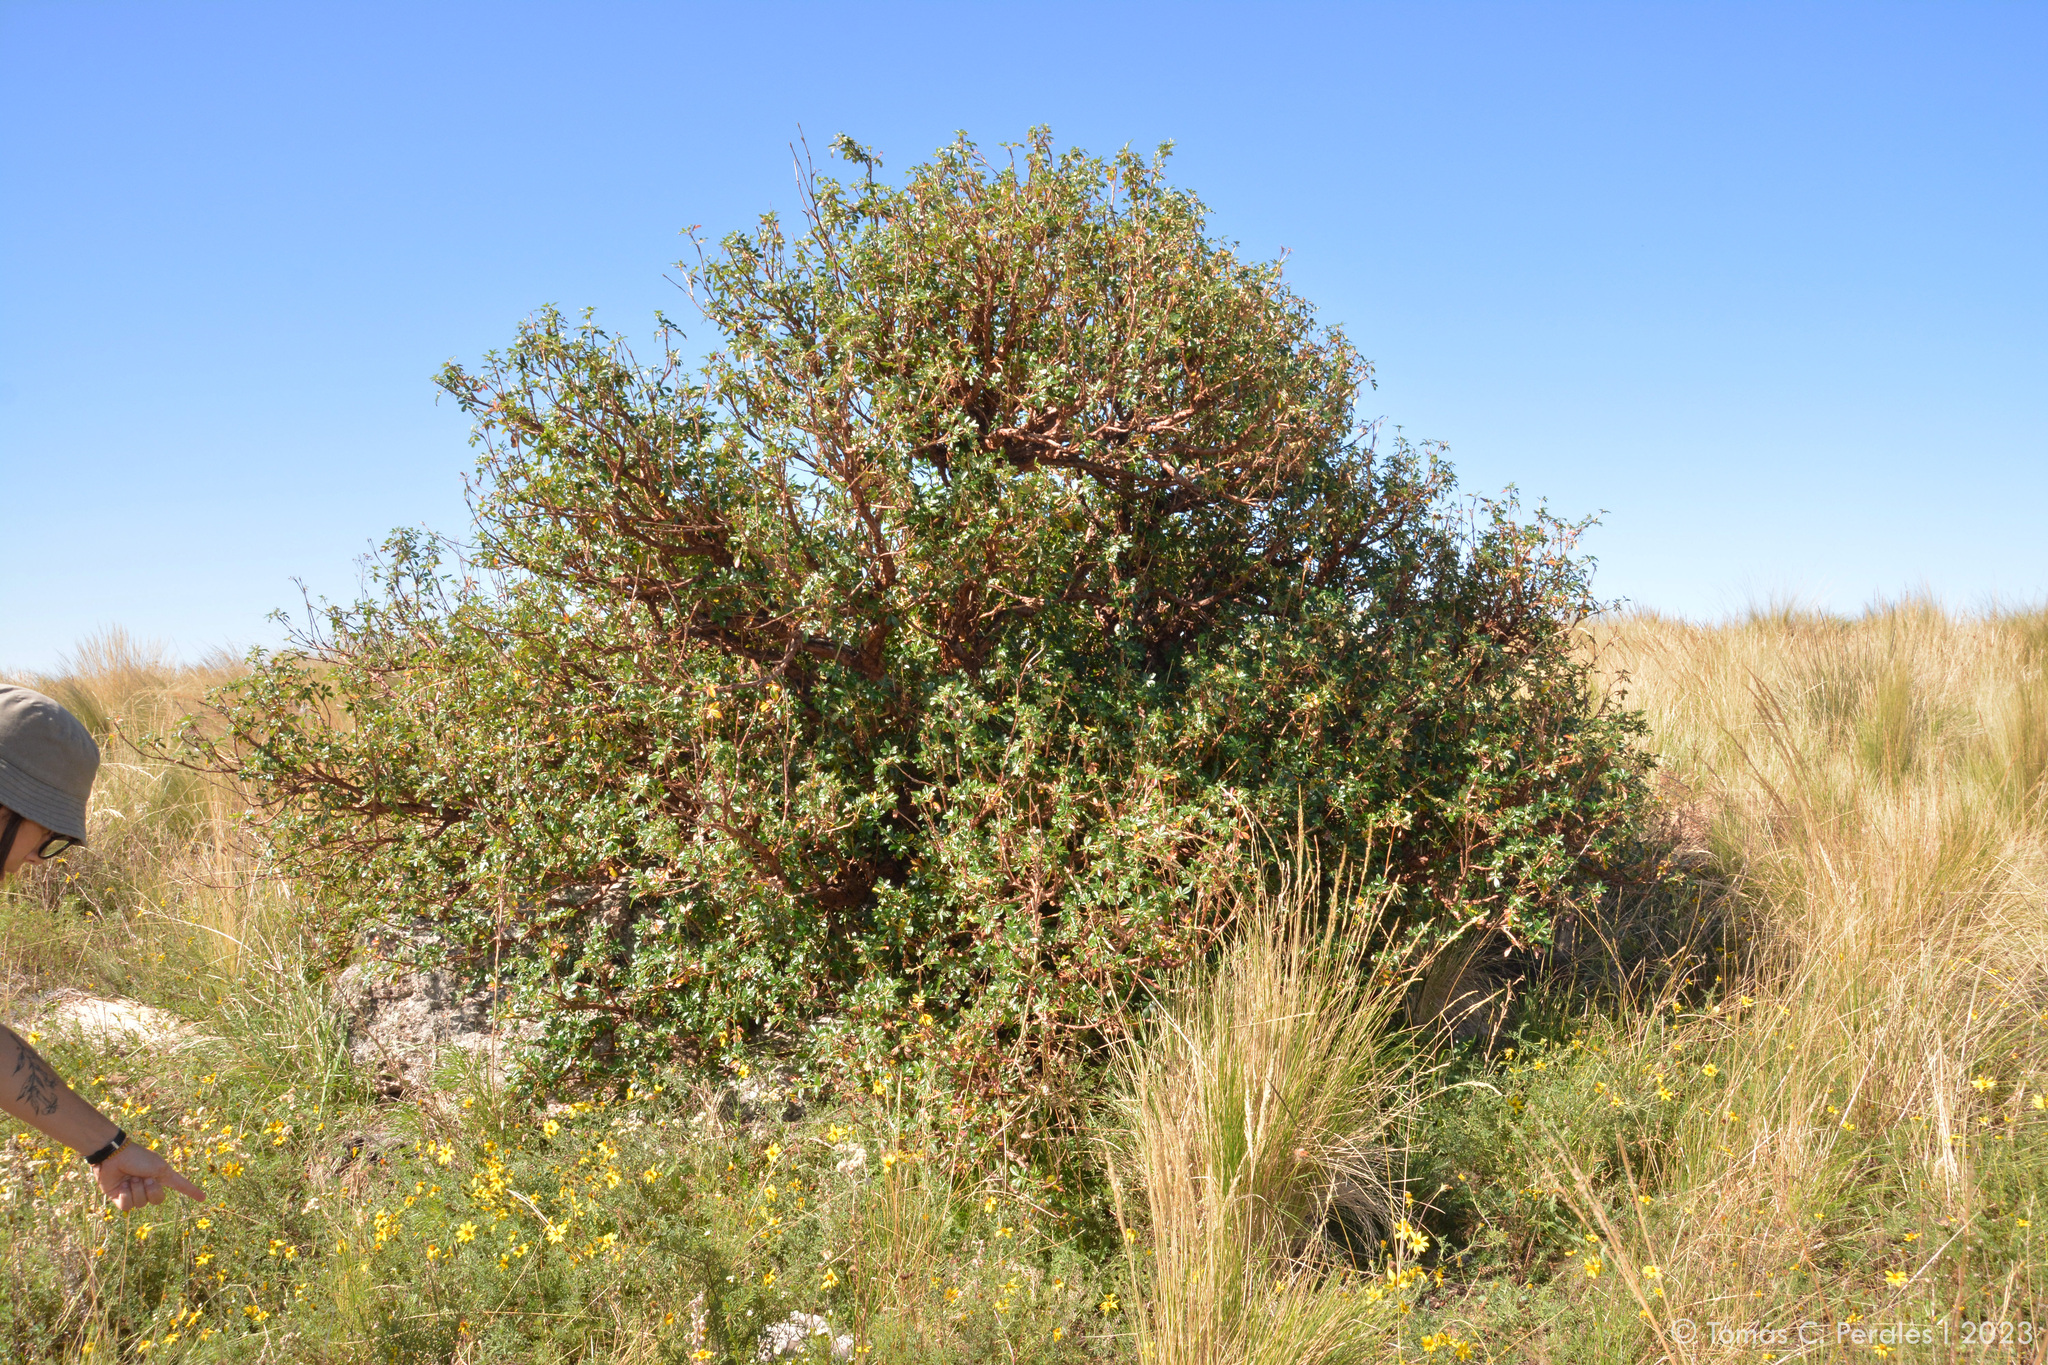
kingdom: Plantae
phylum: Tracheophyta
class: Magnoliopsida
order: Rosales
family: Rosaceae
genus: Polylepis
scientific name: Polylepis australis
